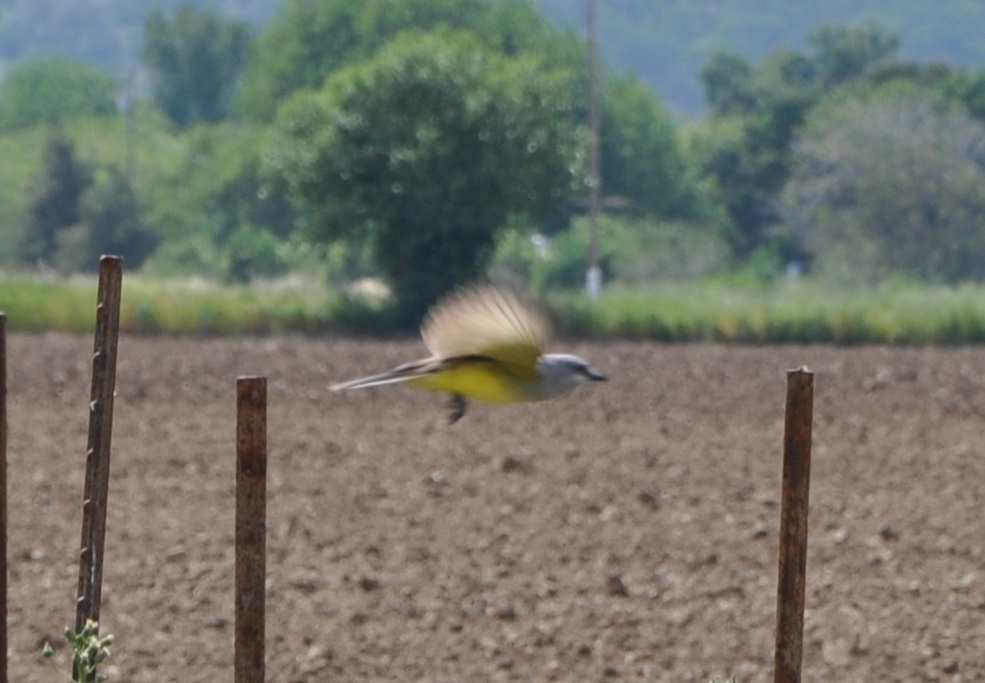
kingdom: Animalia
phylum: Chordata
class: Aves
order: Passeriformes
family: Tyrannidae
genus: Tyrannus
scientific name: Tyrannus verticalis
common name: Western kingbird
